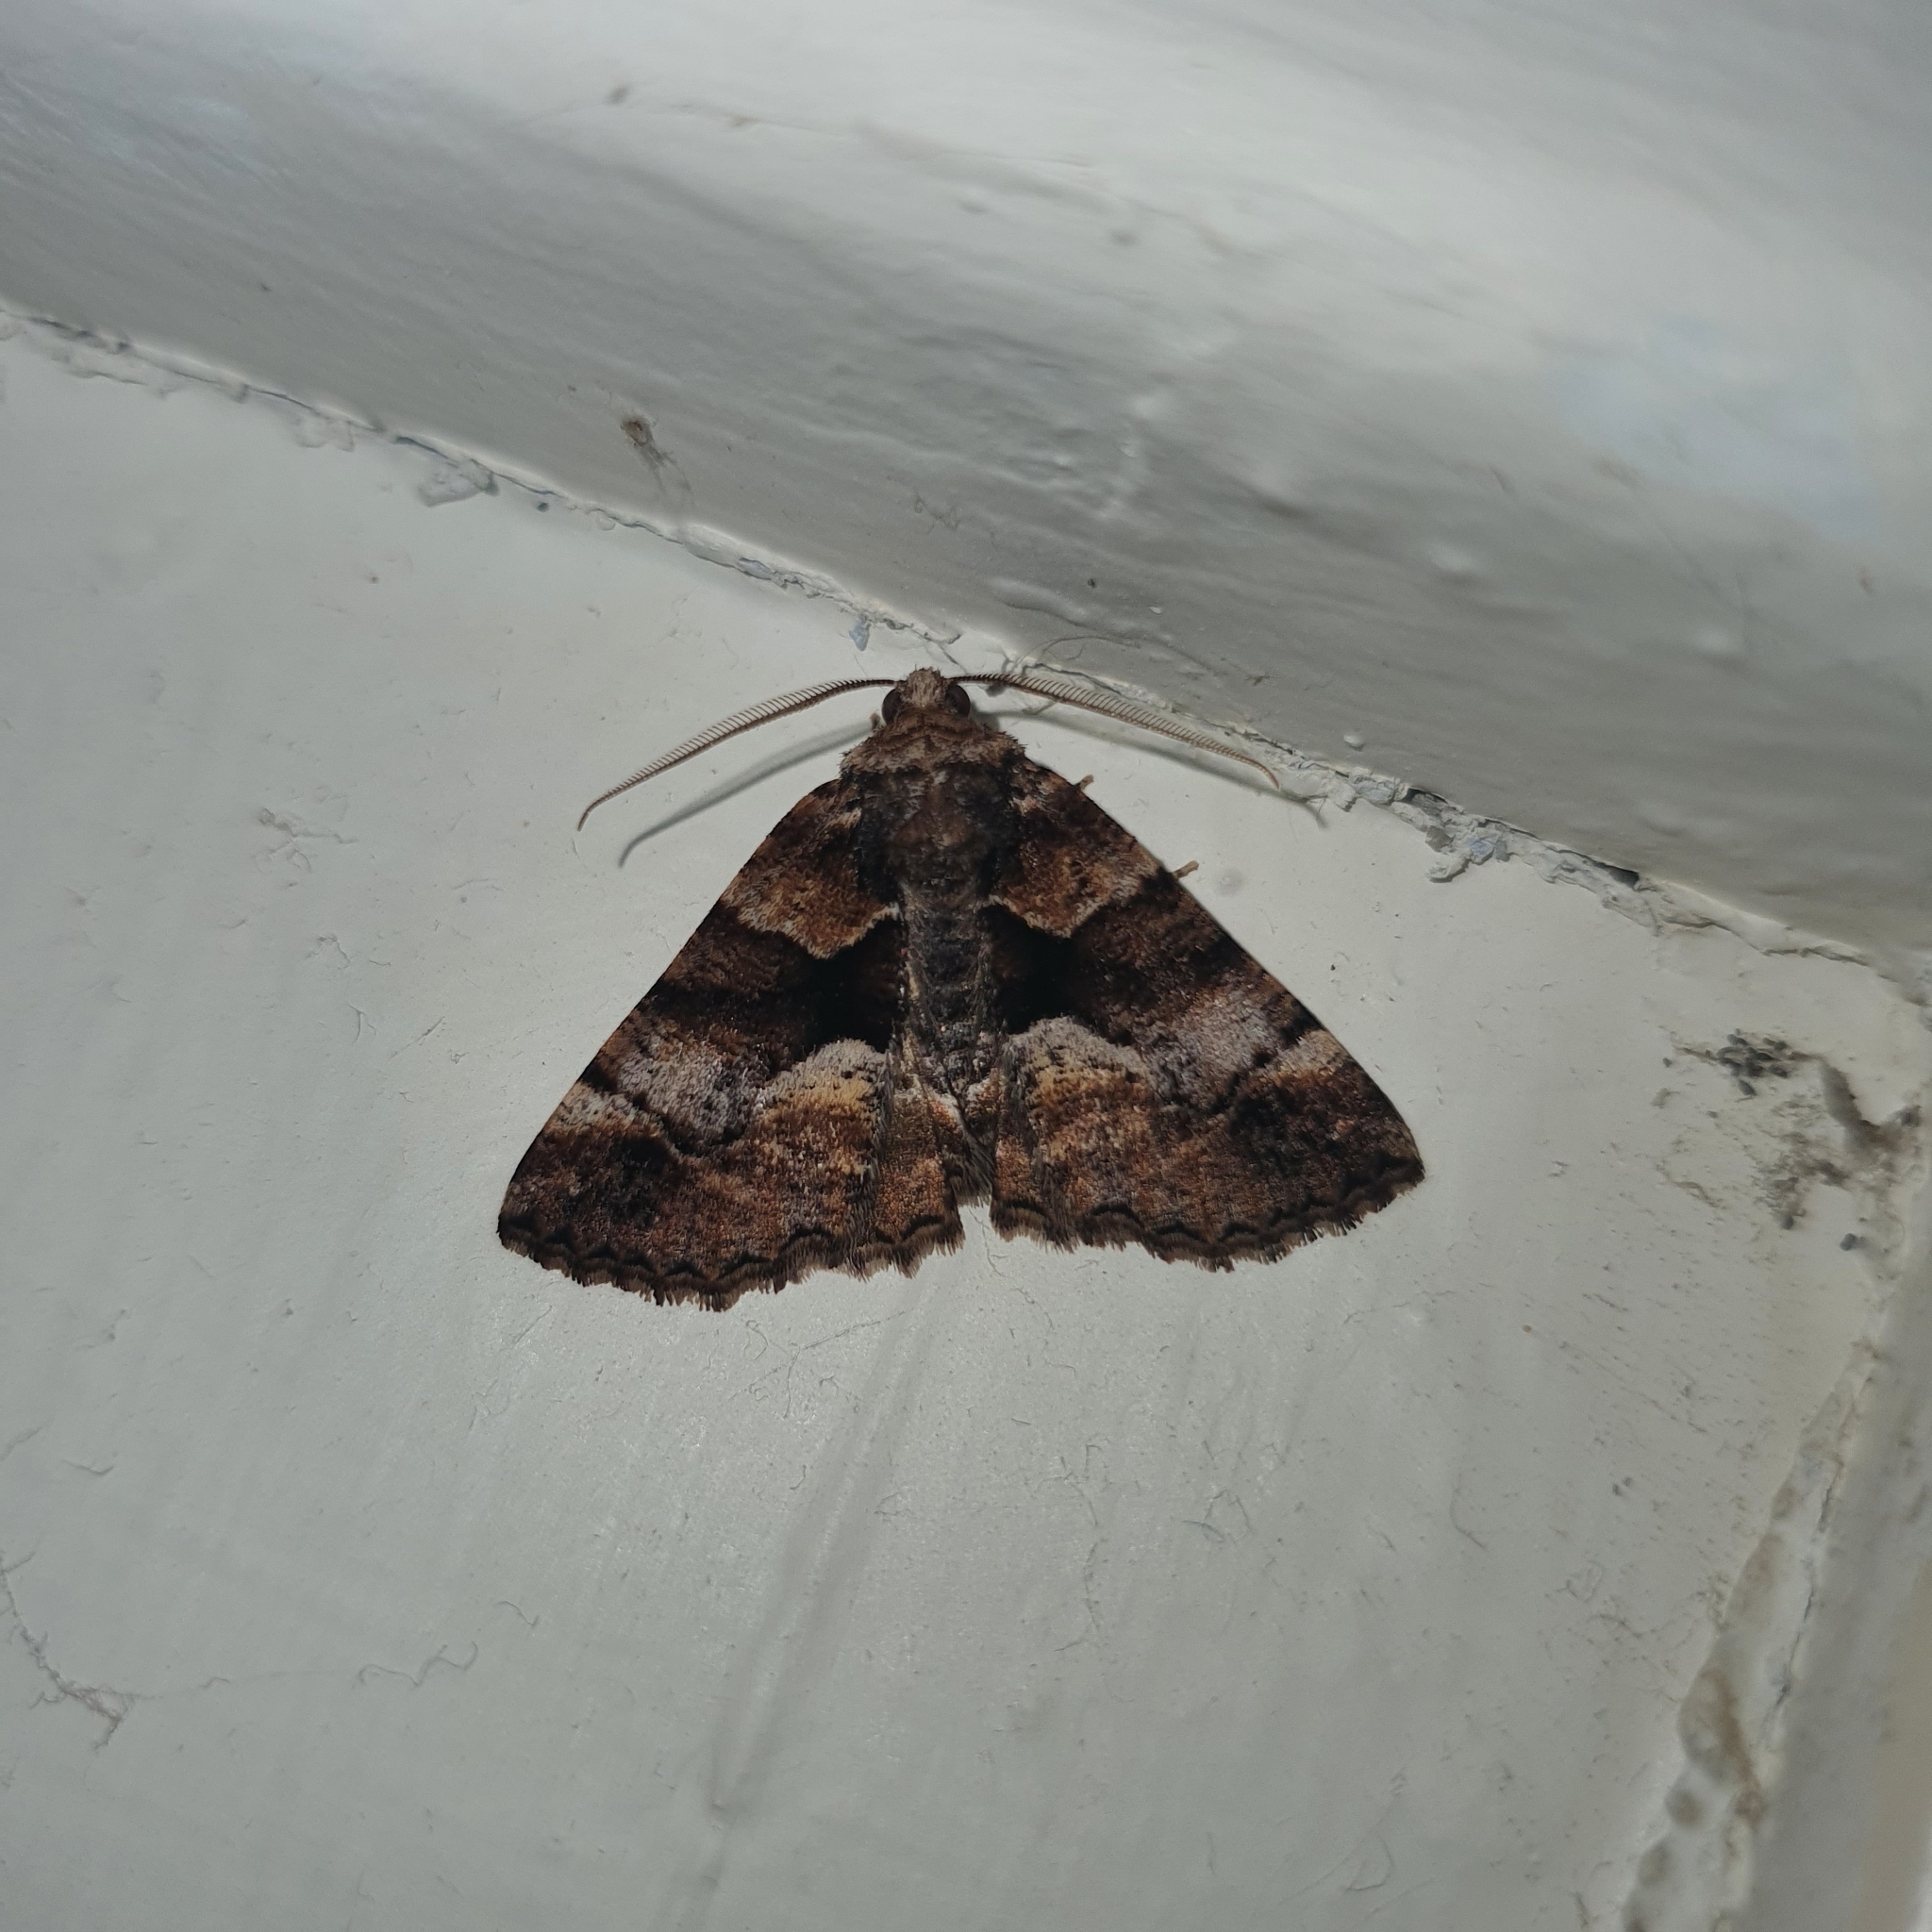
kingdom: Animalia
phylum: Arthropoda
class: Insecta
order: Lepidoptera
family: Geometridae
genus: Gastrina
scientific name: Gastrina cristaria
